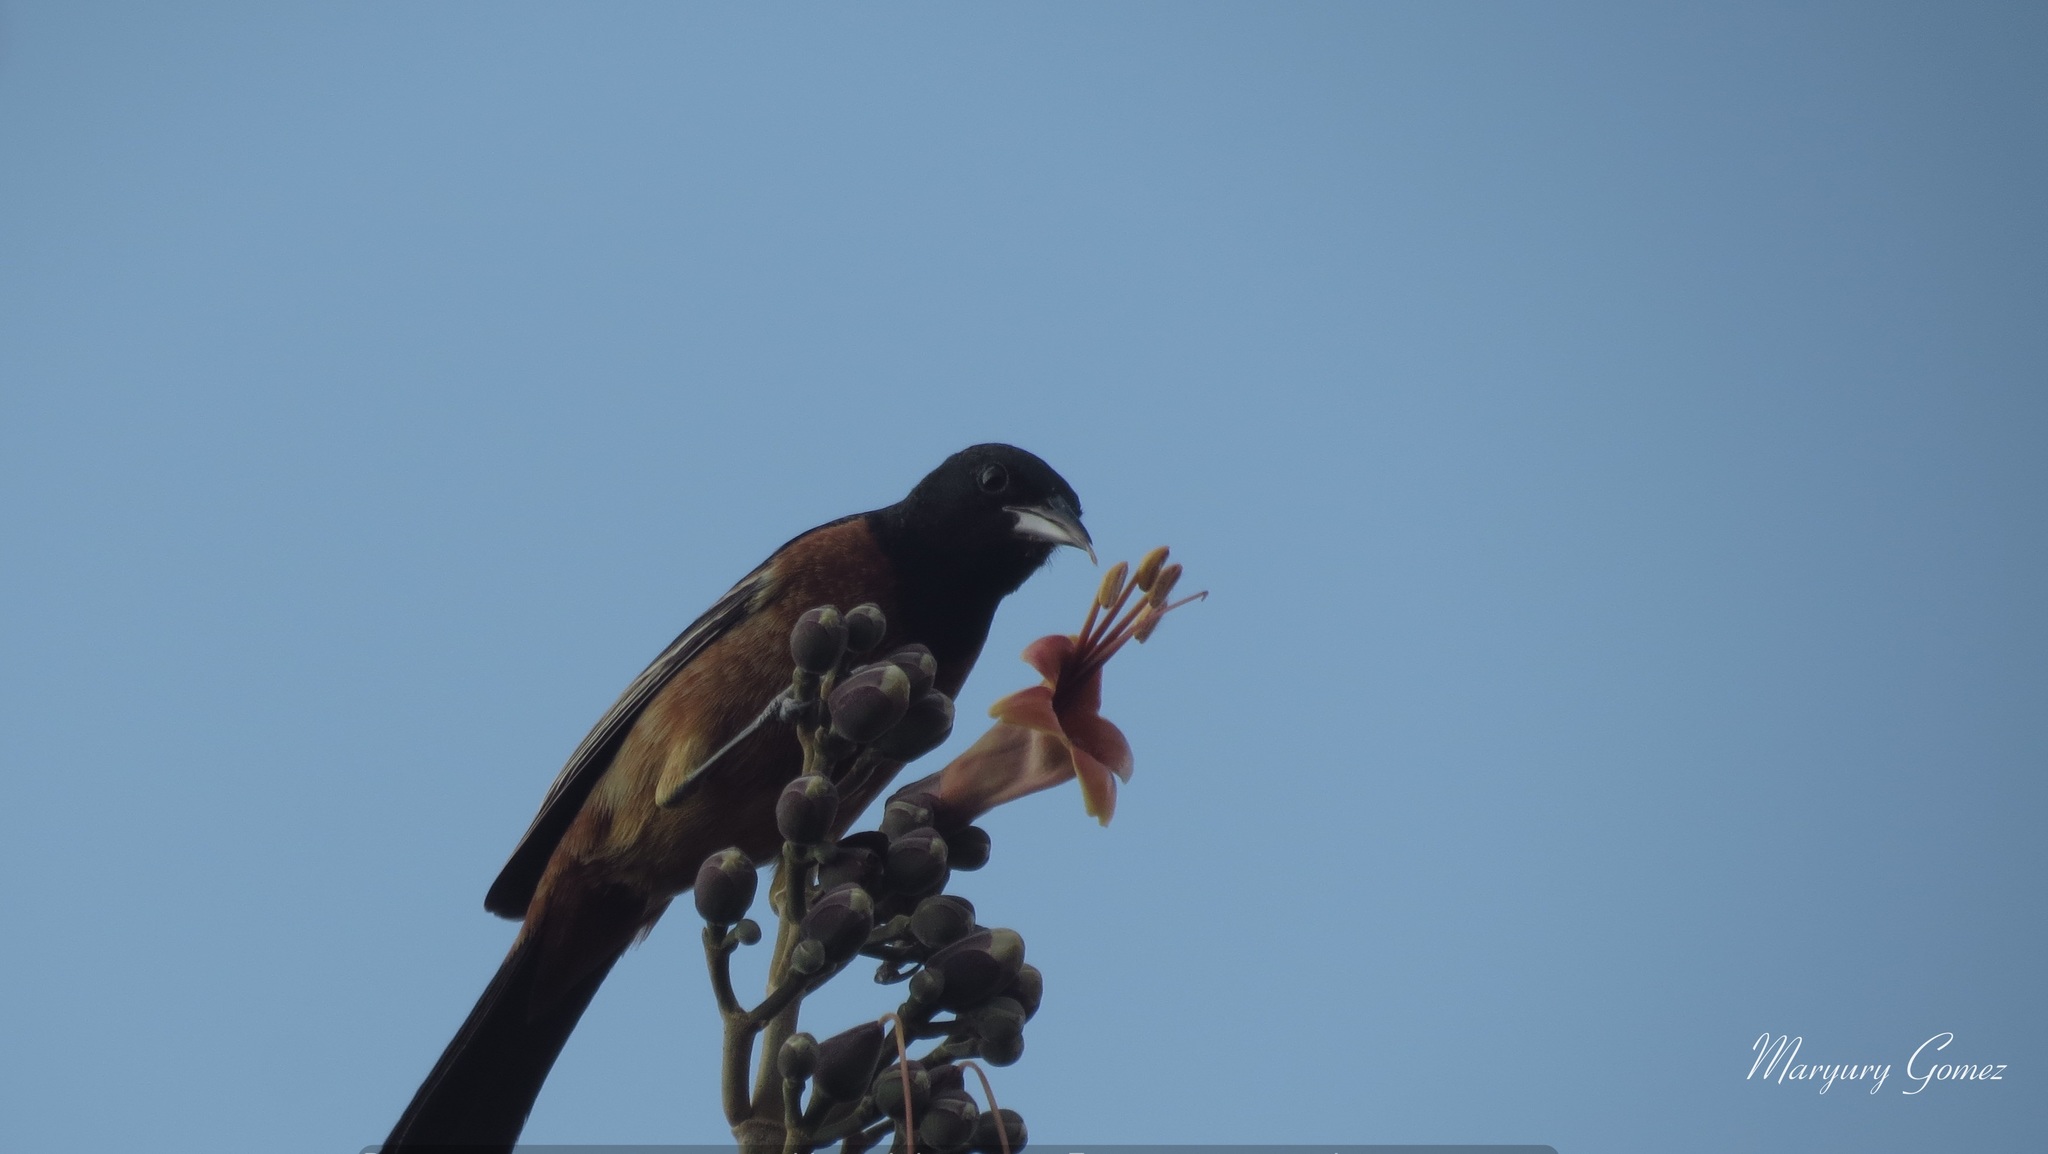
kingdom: Animalia
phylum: Chordata
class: Aves
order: Passeriformes
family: Icteridae
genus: Icterus
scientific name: Icterus spurius
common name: Orchard oriole
